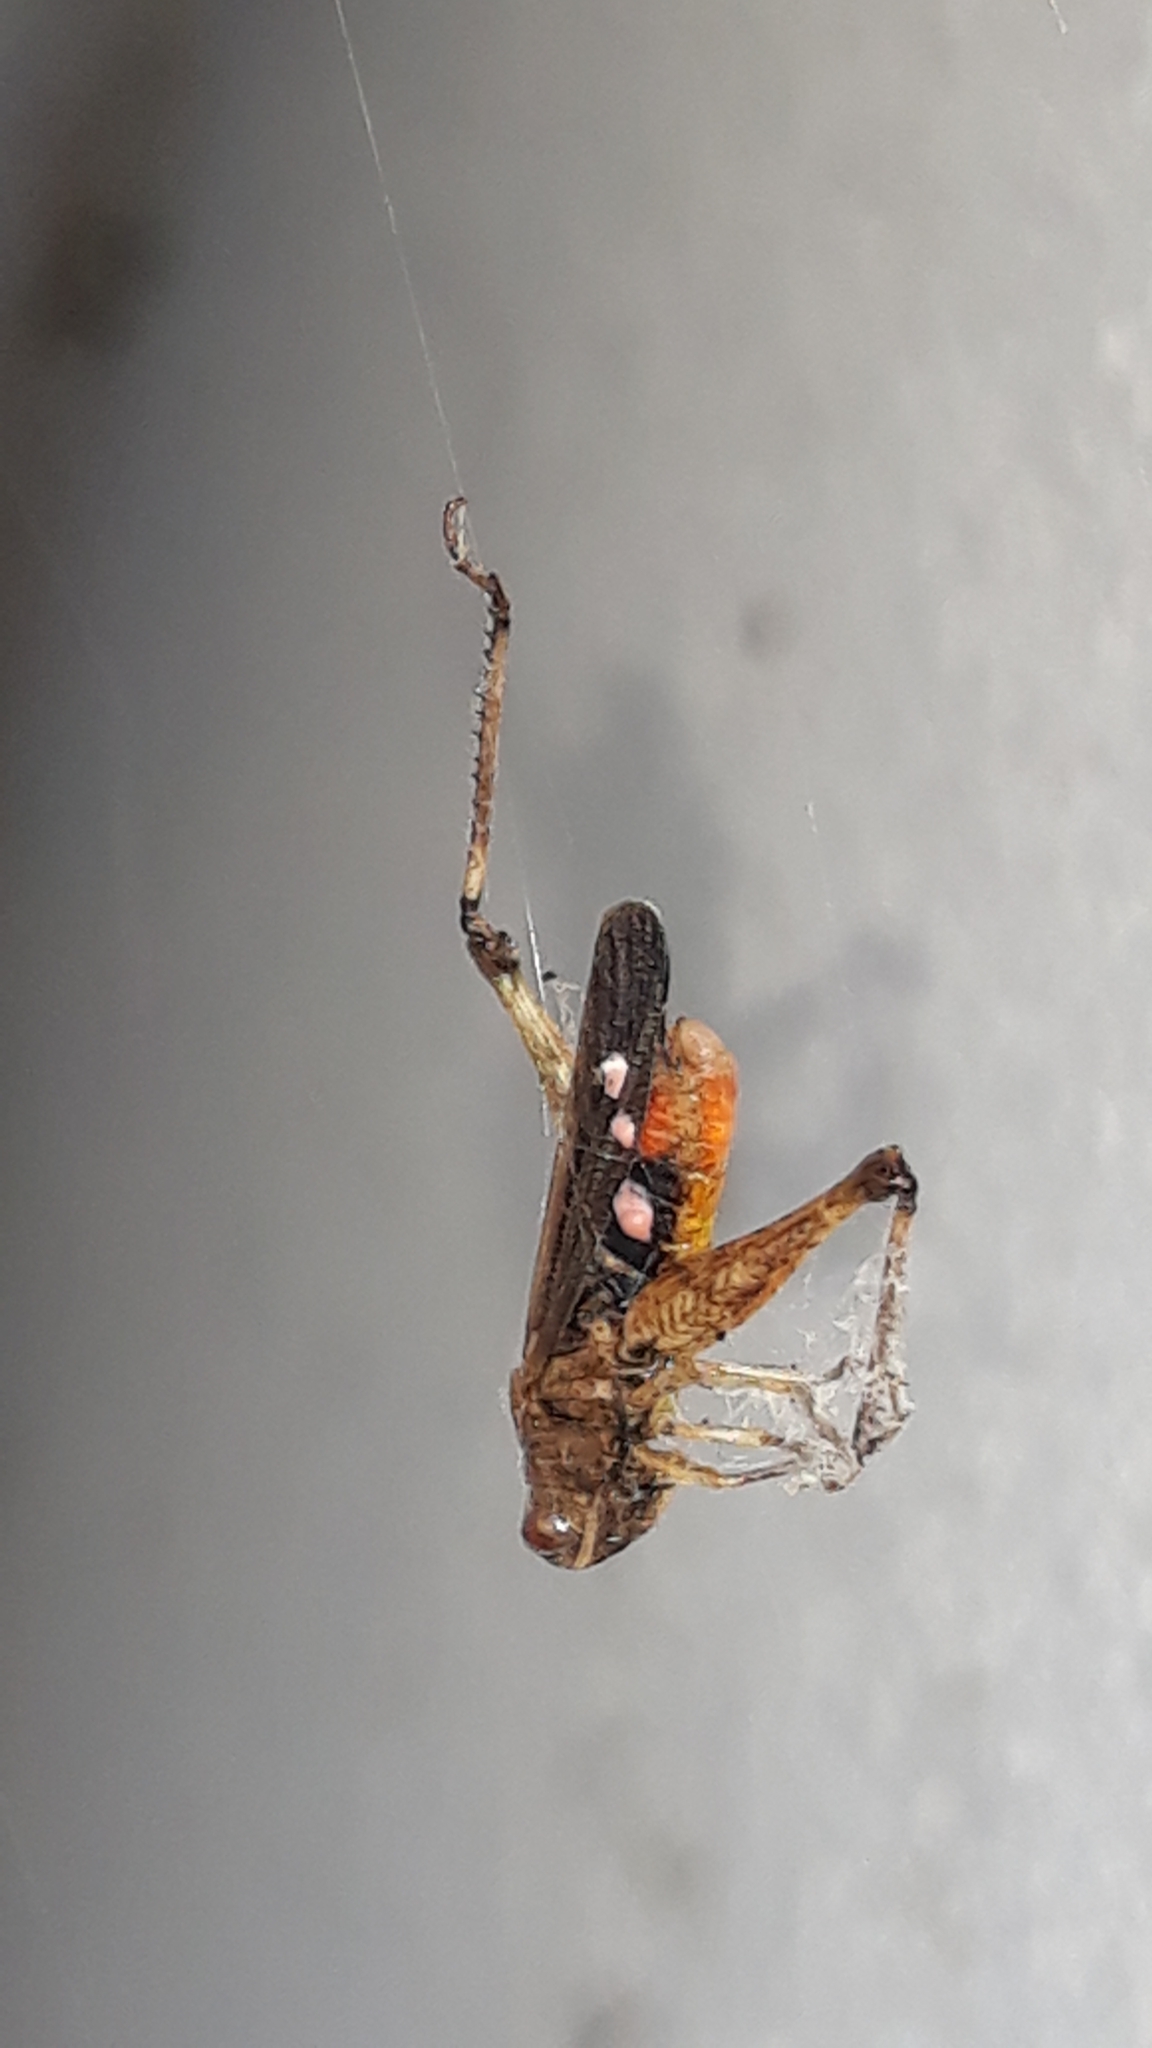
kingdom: Animalia
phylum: Arthropoda
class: Insecta
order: Orthoptera
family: Acrididae
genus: Omocestus
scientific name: Omocestus rufipes
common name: Woodland grasshopper
